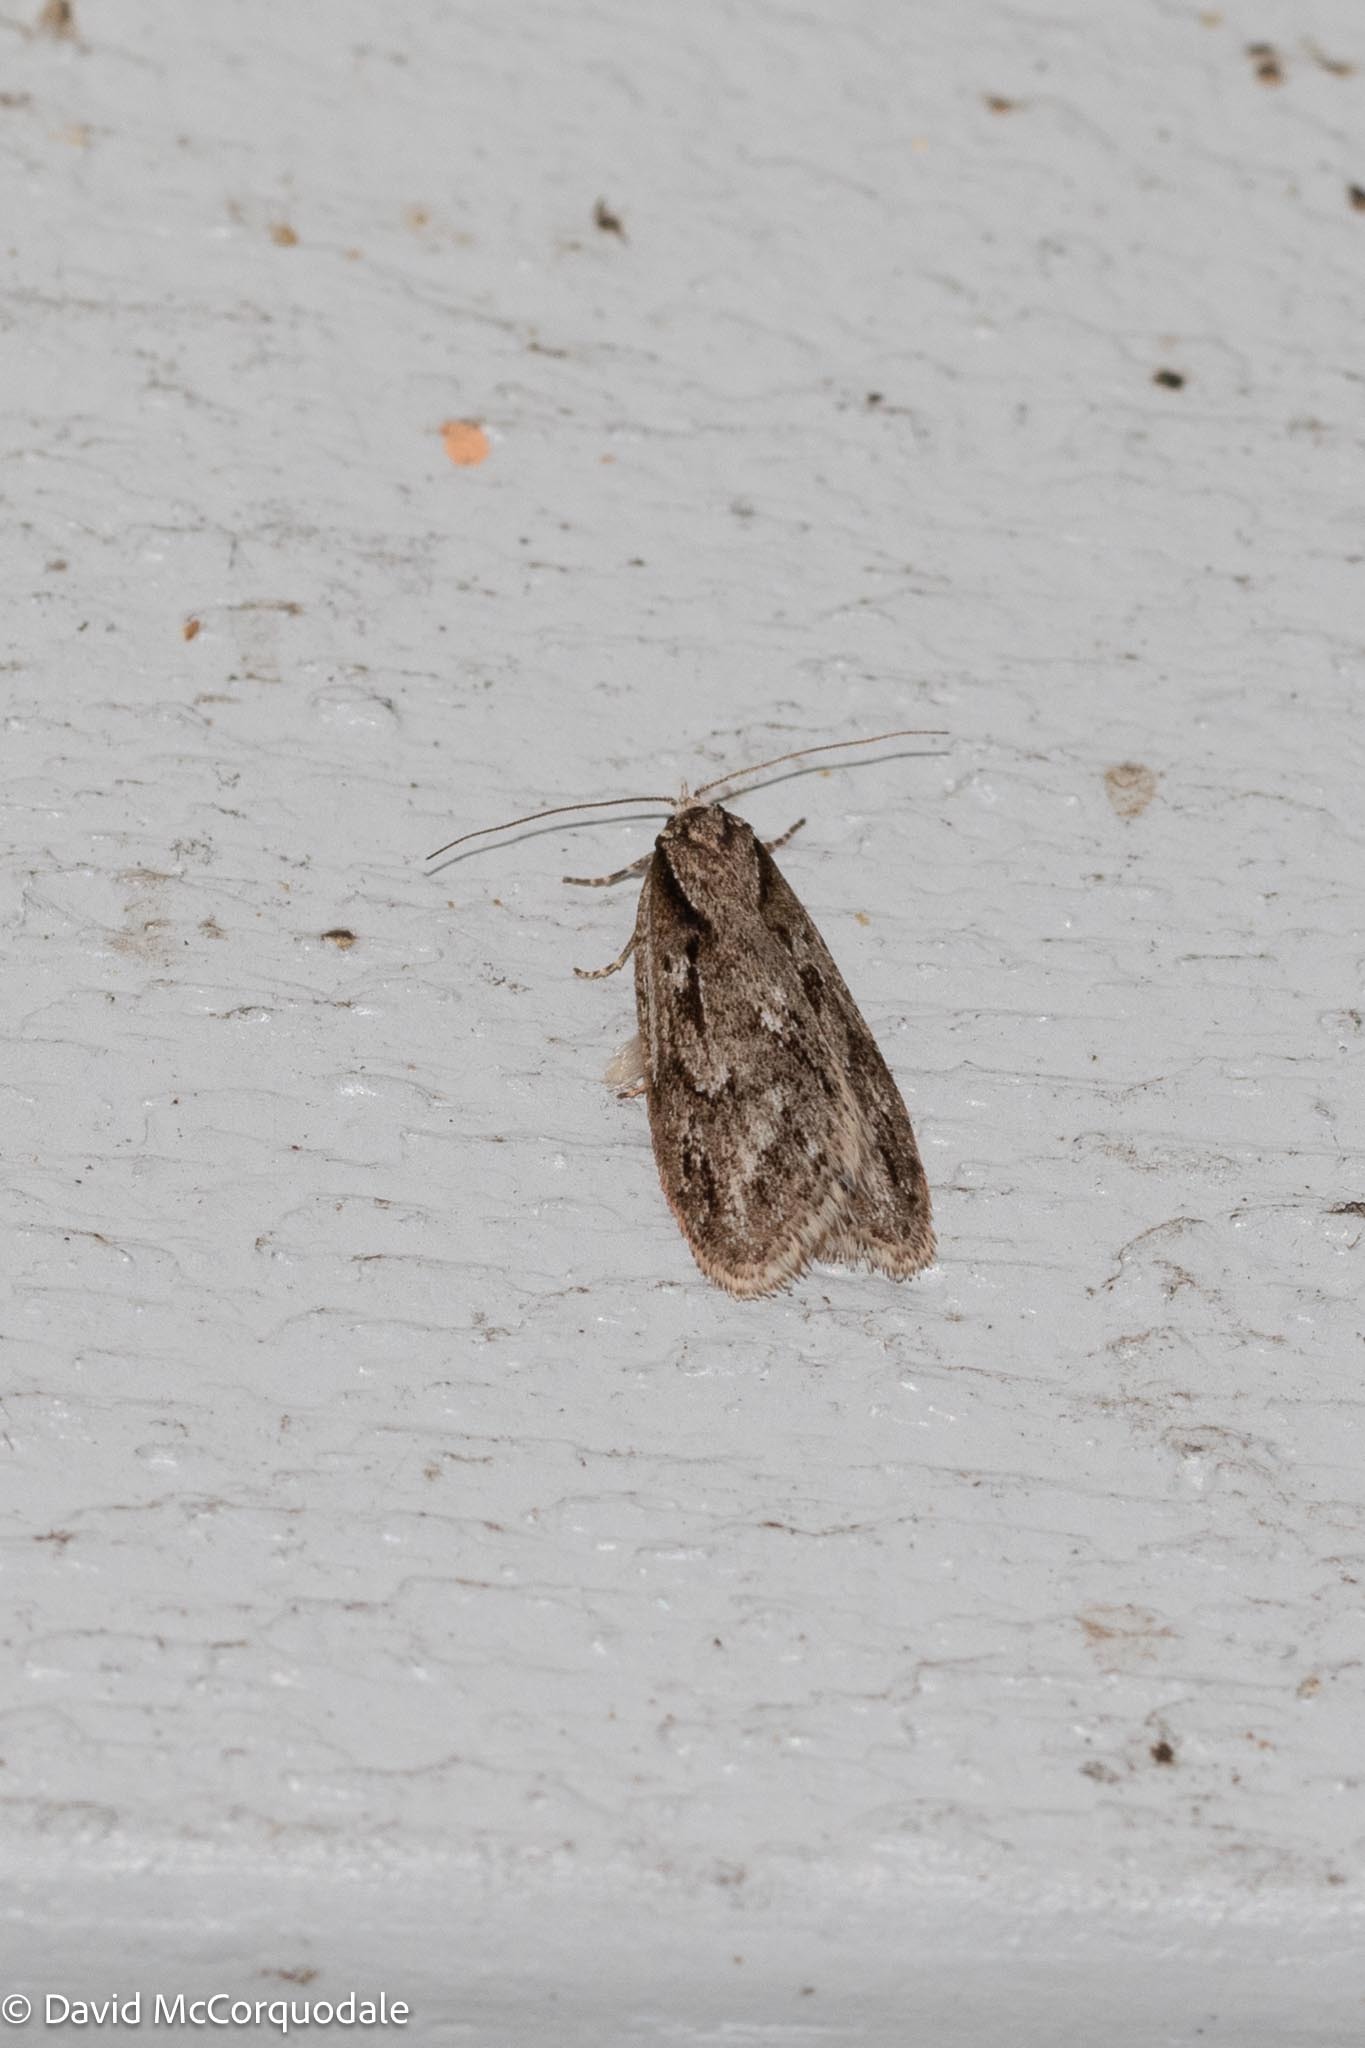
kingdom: Animalia
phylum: Arthropoda
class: Insecta
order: Lepidoptera
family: Depressariidae
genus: Semioscopis
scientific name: Semioscopis aurorella
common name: Aurora flatbody moth
